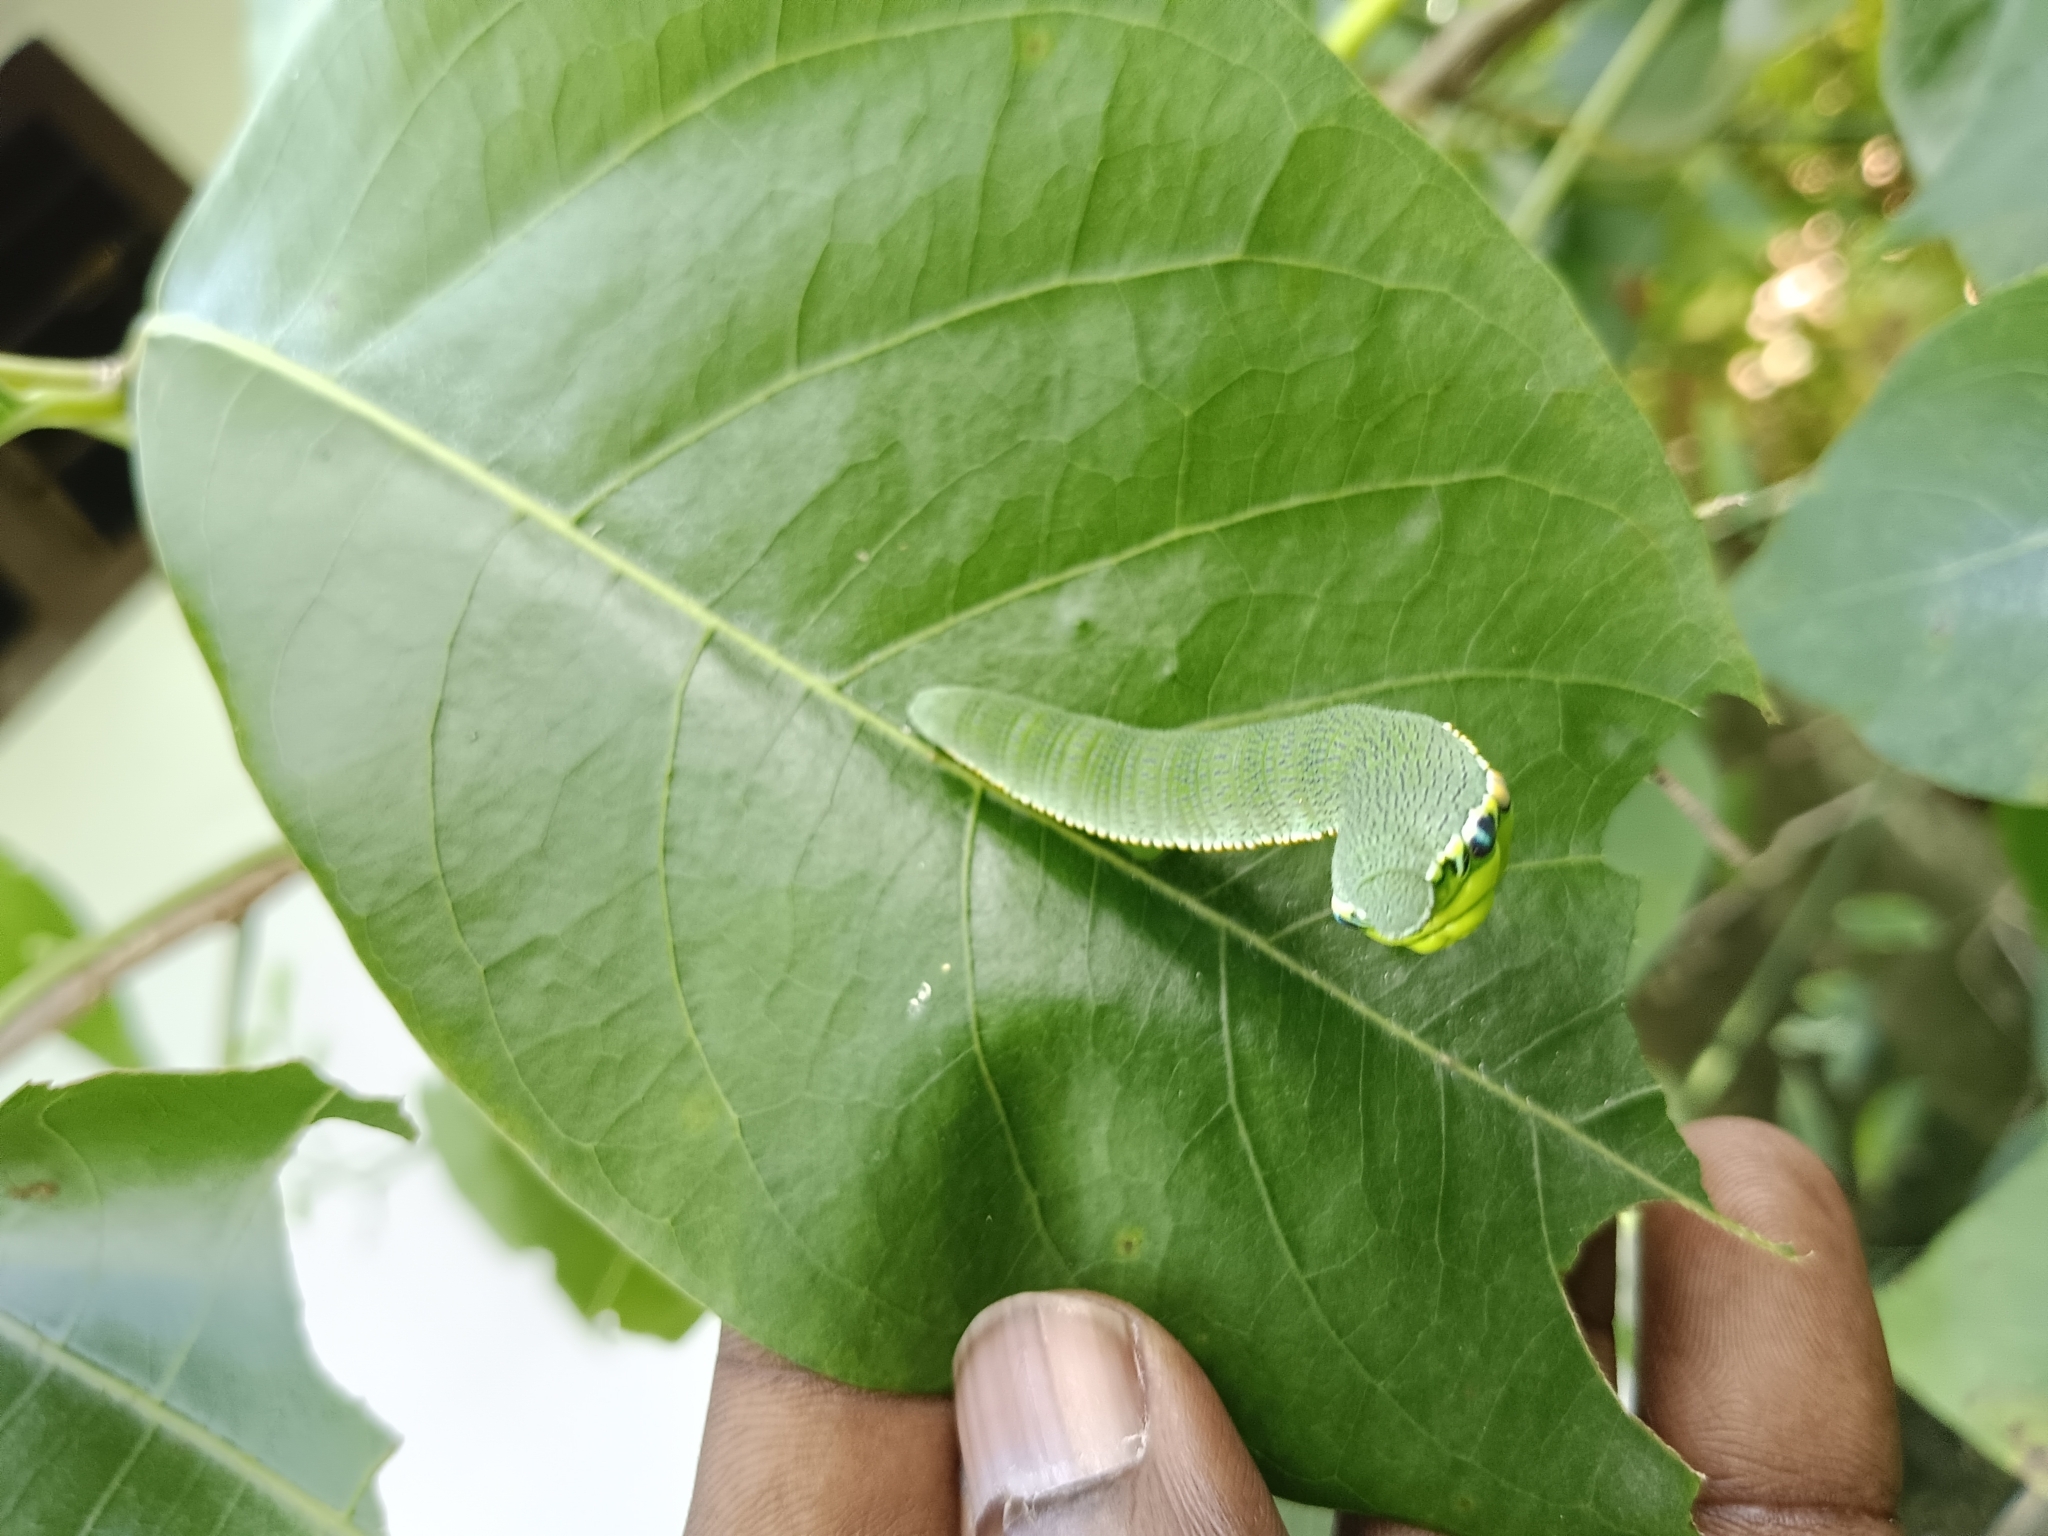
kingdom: Animalia
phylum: Arthropoda
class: Insecta
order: Lepidoptera
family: Pieridae
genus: Hebomoia
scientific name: Hebomoia glaucippe
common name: Great orange tip
